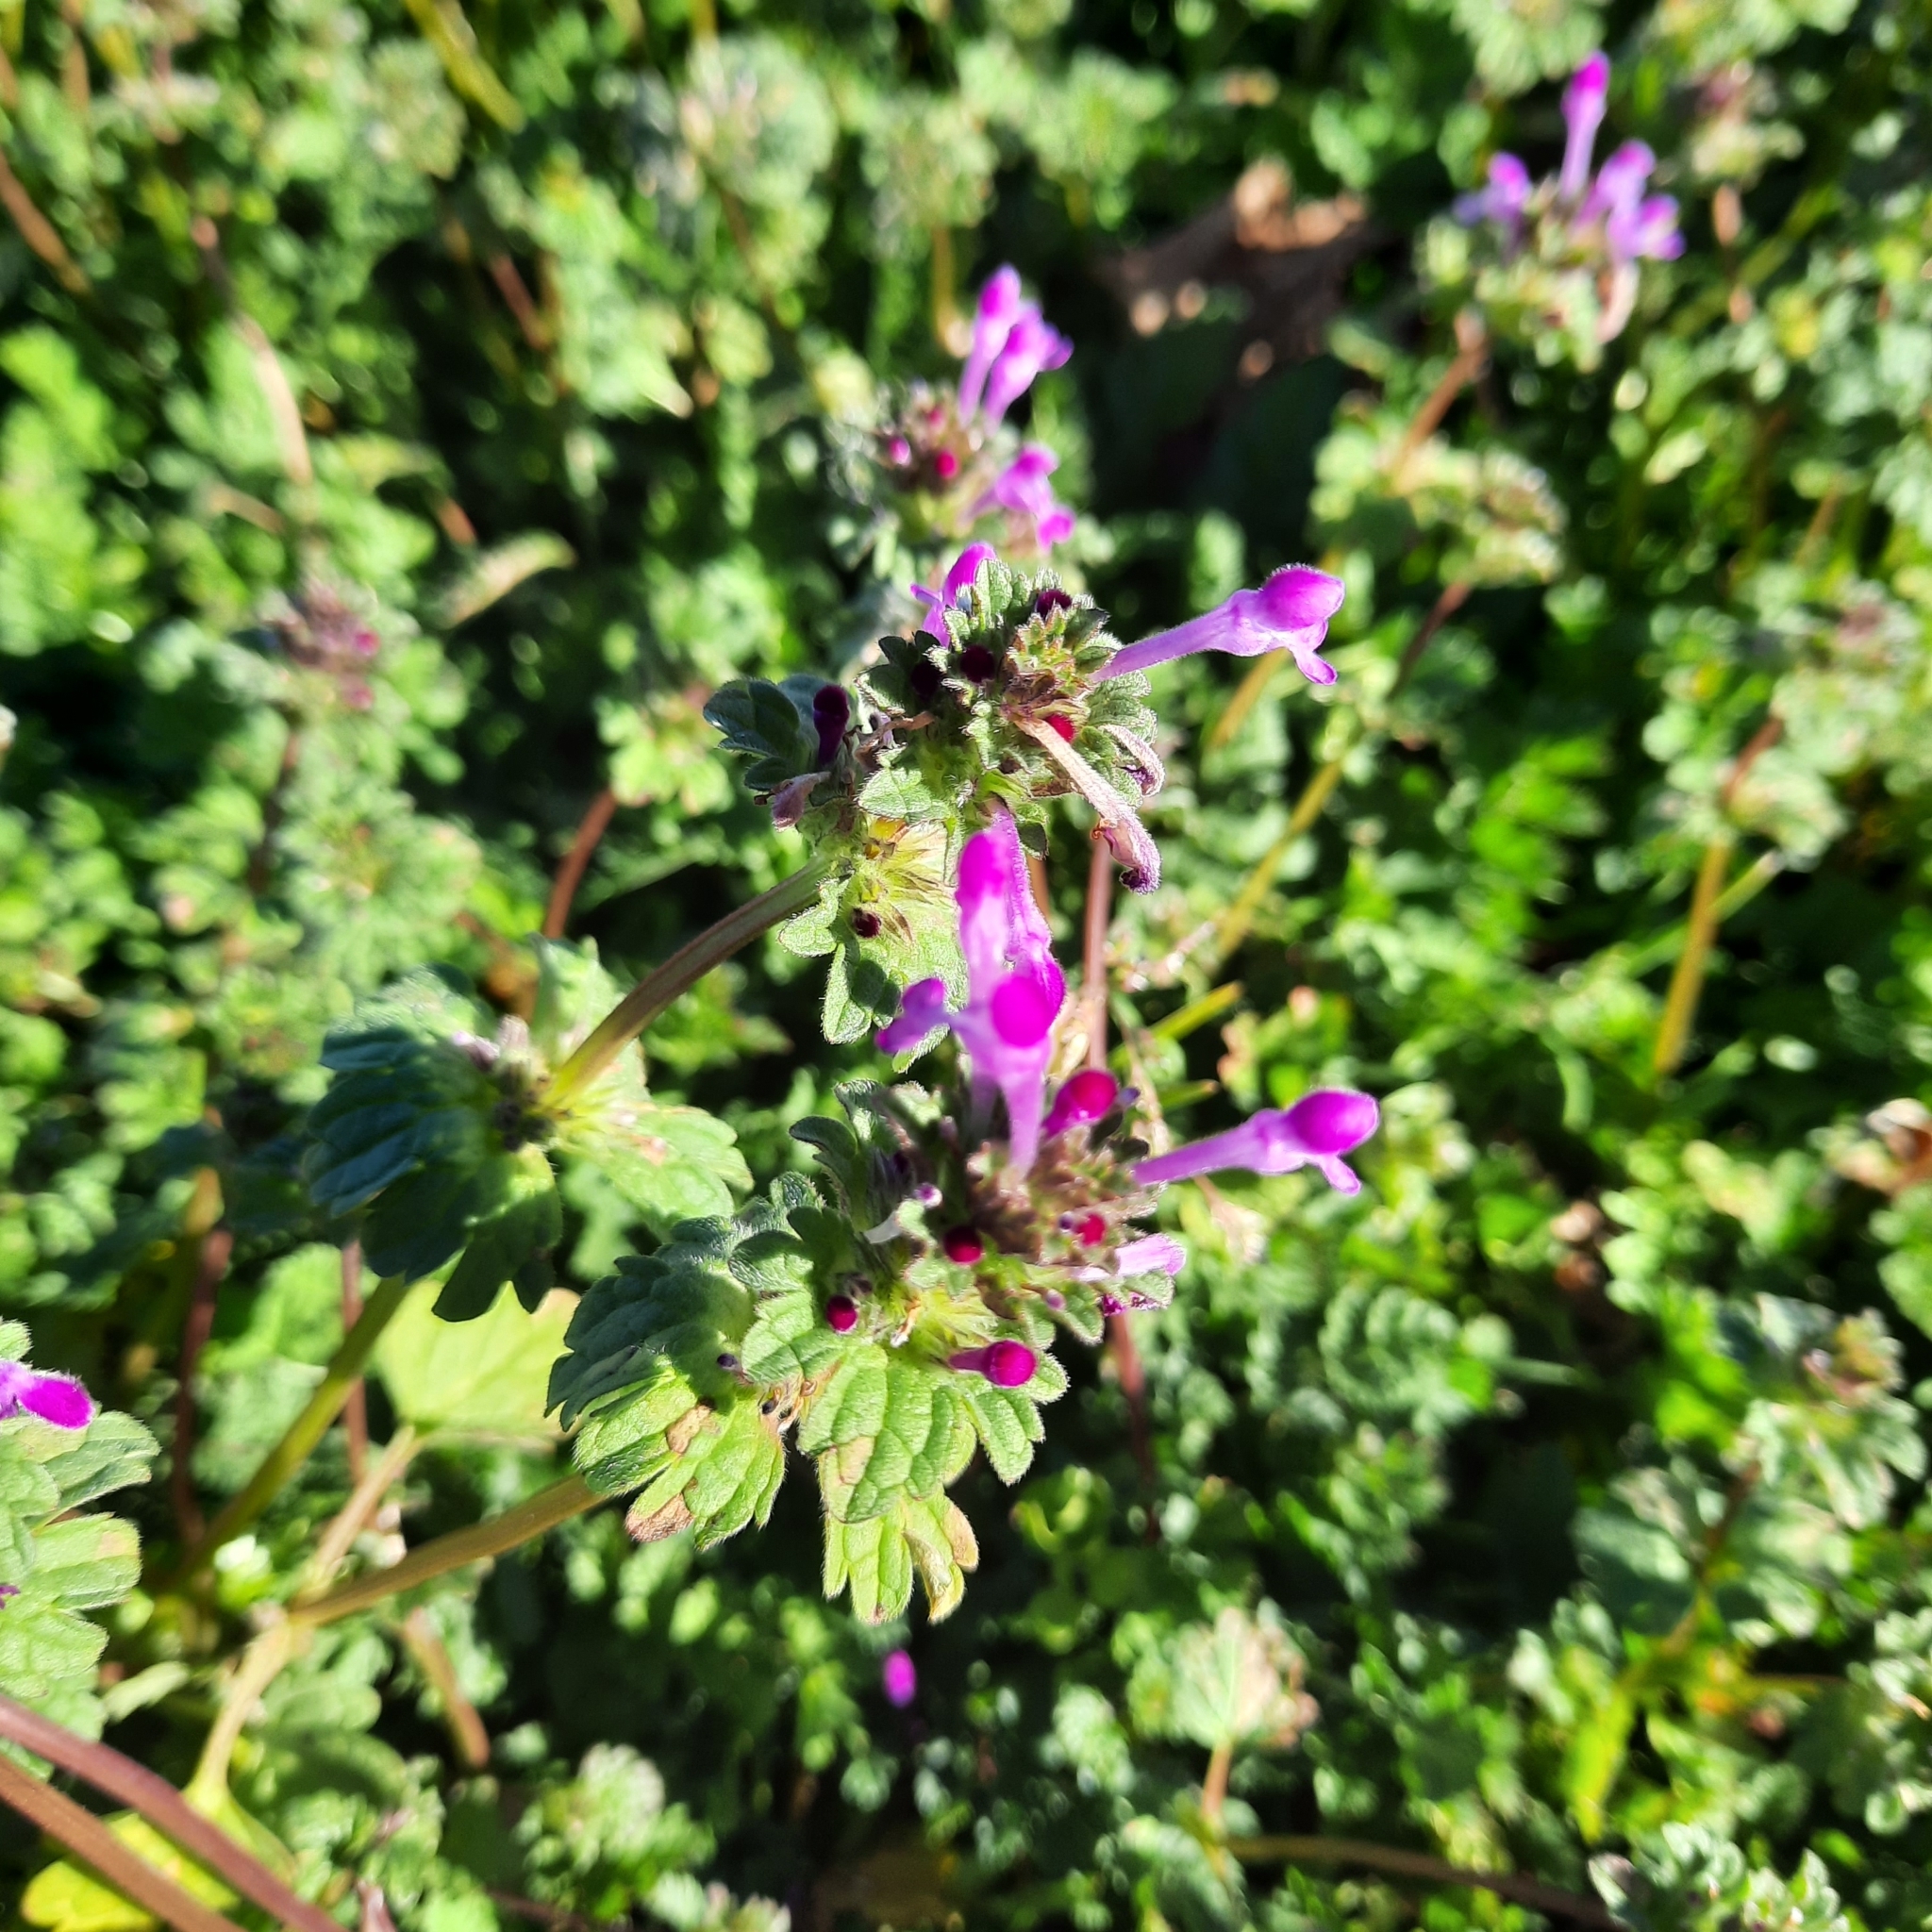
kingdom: Plantae
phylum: Tracheophyta
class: Magnoliopsida
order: Lamiales
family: Lamiaceae
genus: Lamium
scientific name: Lamium amplexicaule
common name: Henbit dead-nettle
